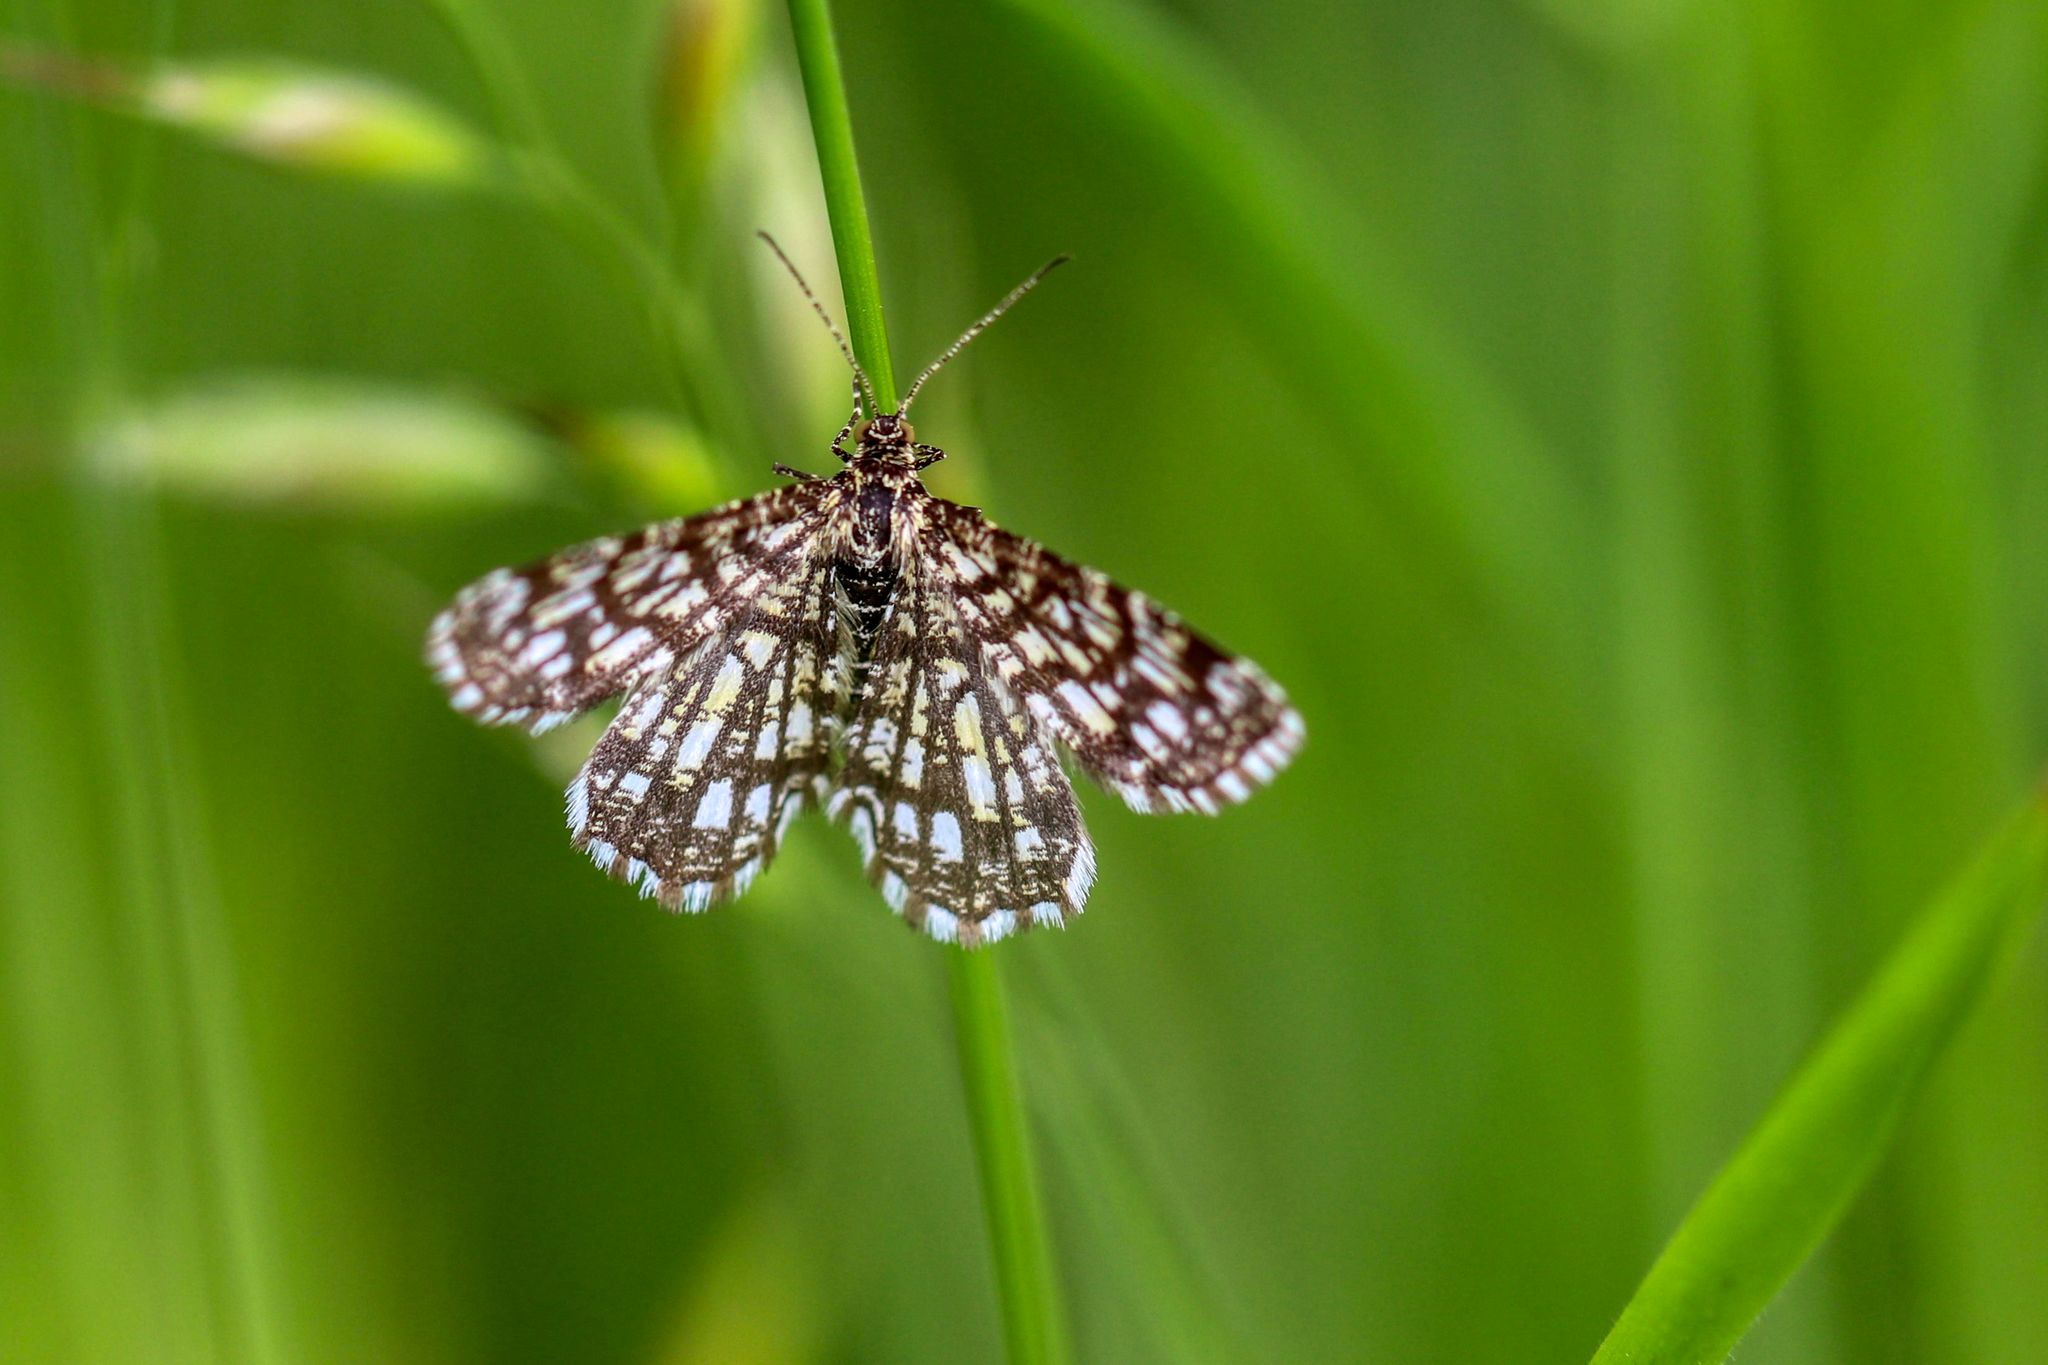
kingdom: Animalia
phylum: Arthropoda
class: Insecta
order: Lepidoptera
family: Geometridae
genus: Chiasmia
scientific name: Chiasmia clathrata
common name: Latticed heath
